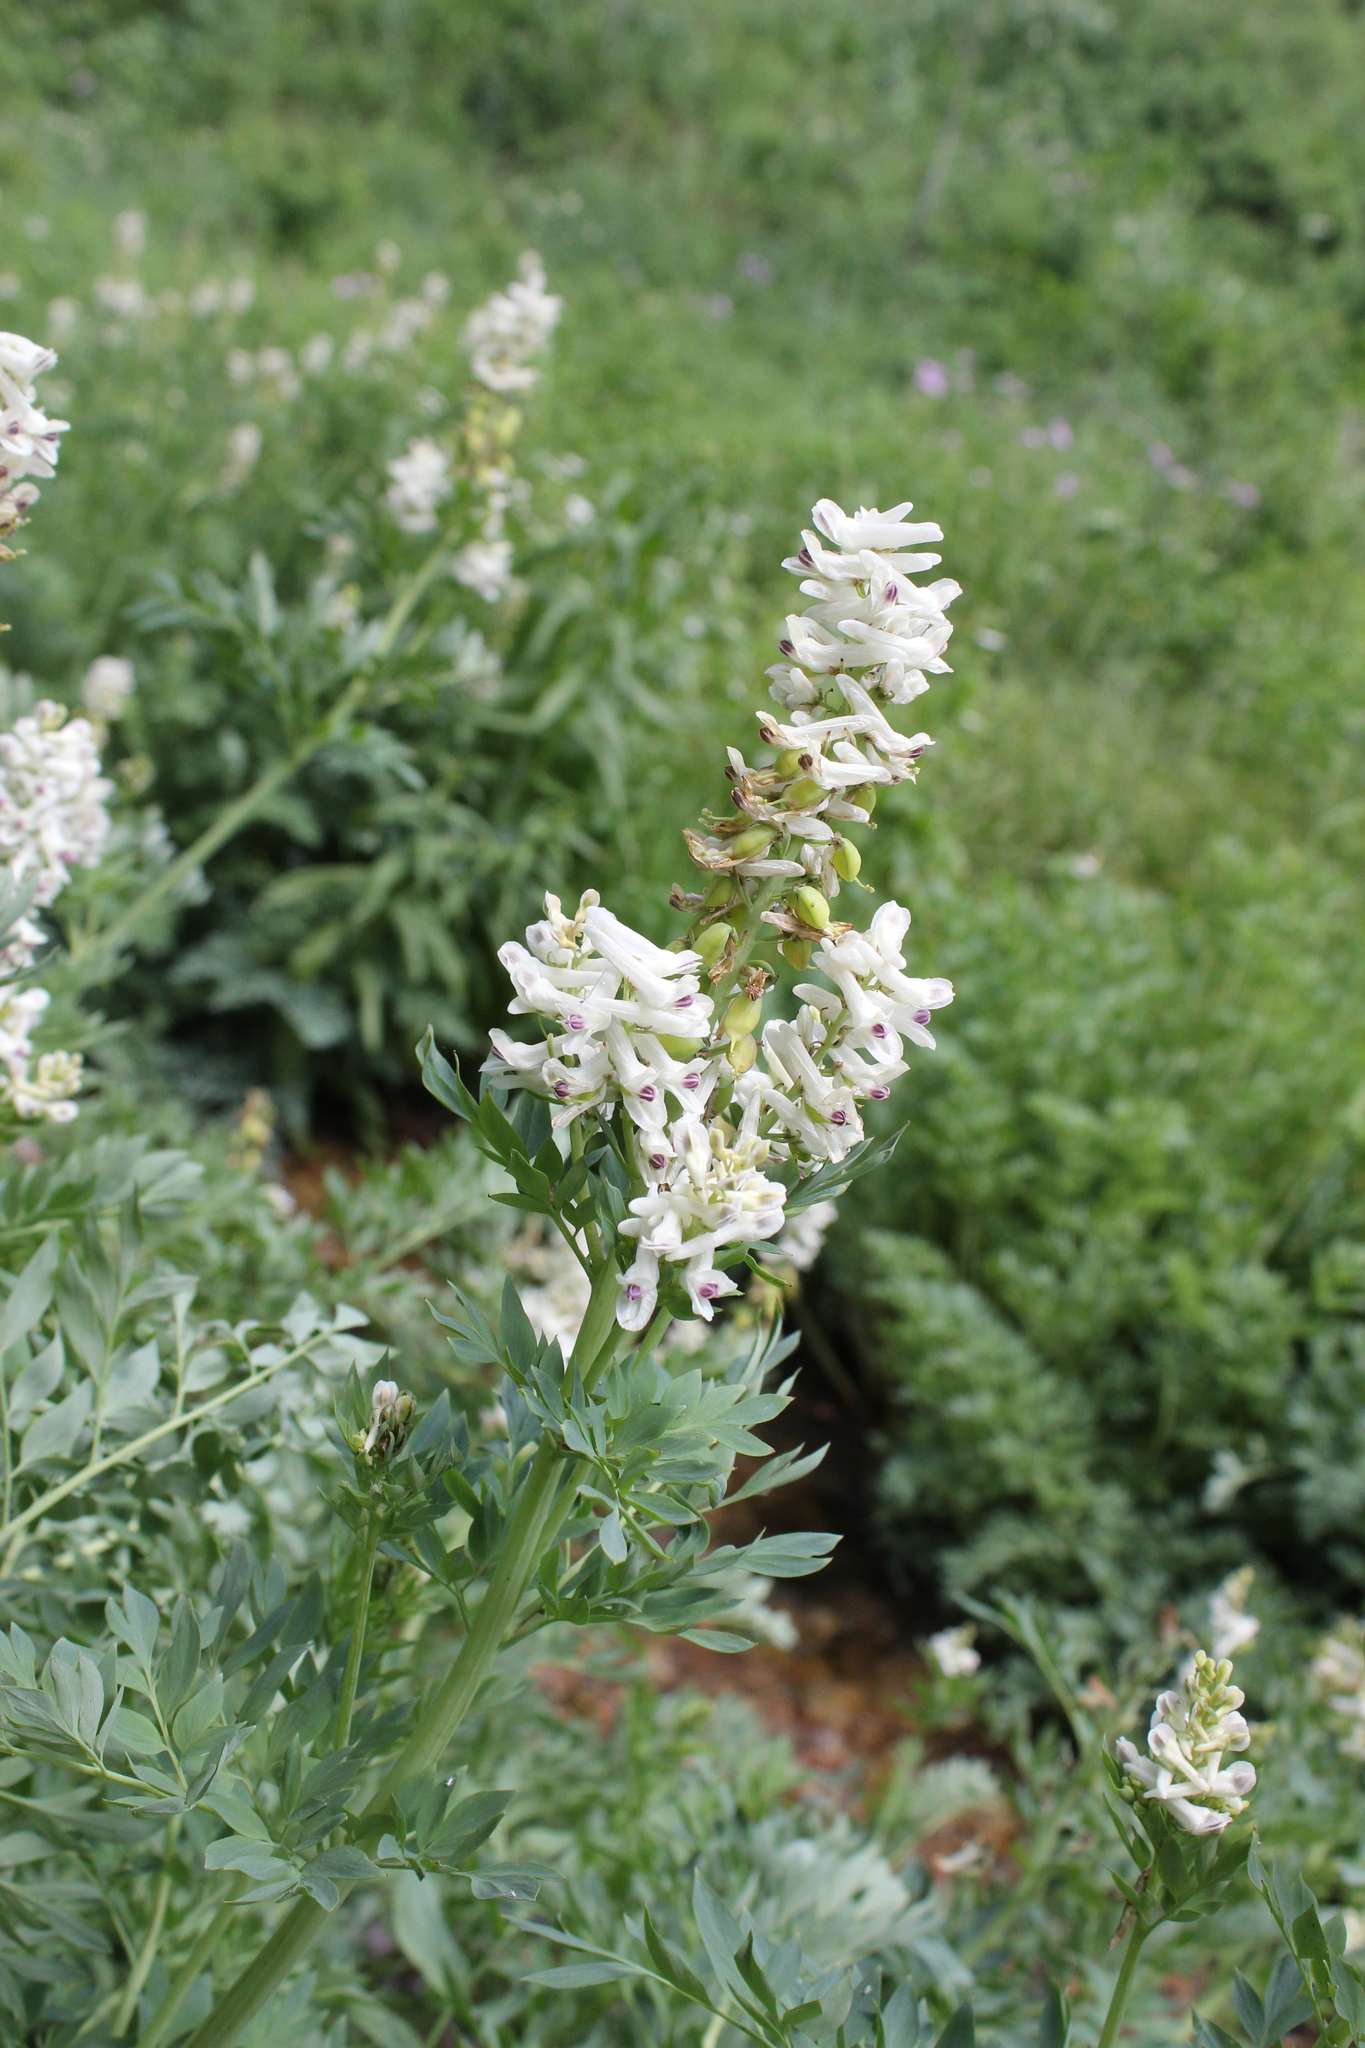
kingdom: Plantae
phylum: Tracheophyta
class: Magnoliopsida
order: Ranunculales
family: Papaveraceae
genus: Corydalis
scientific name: Corydalis caseana
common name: Fitweed
